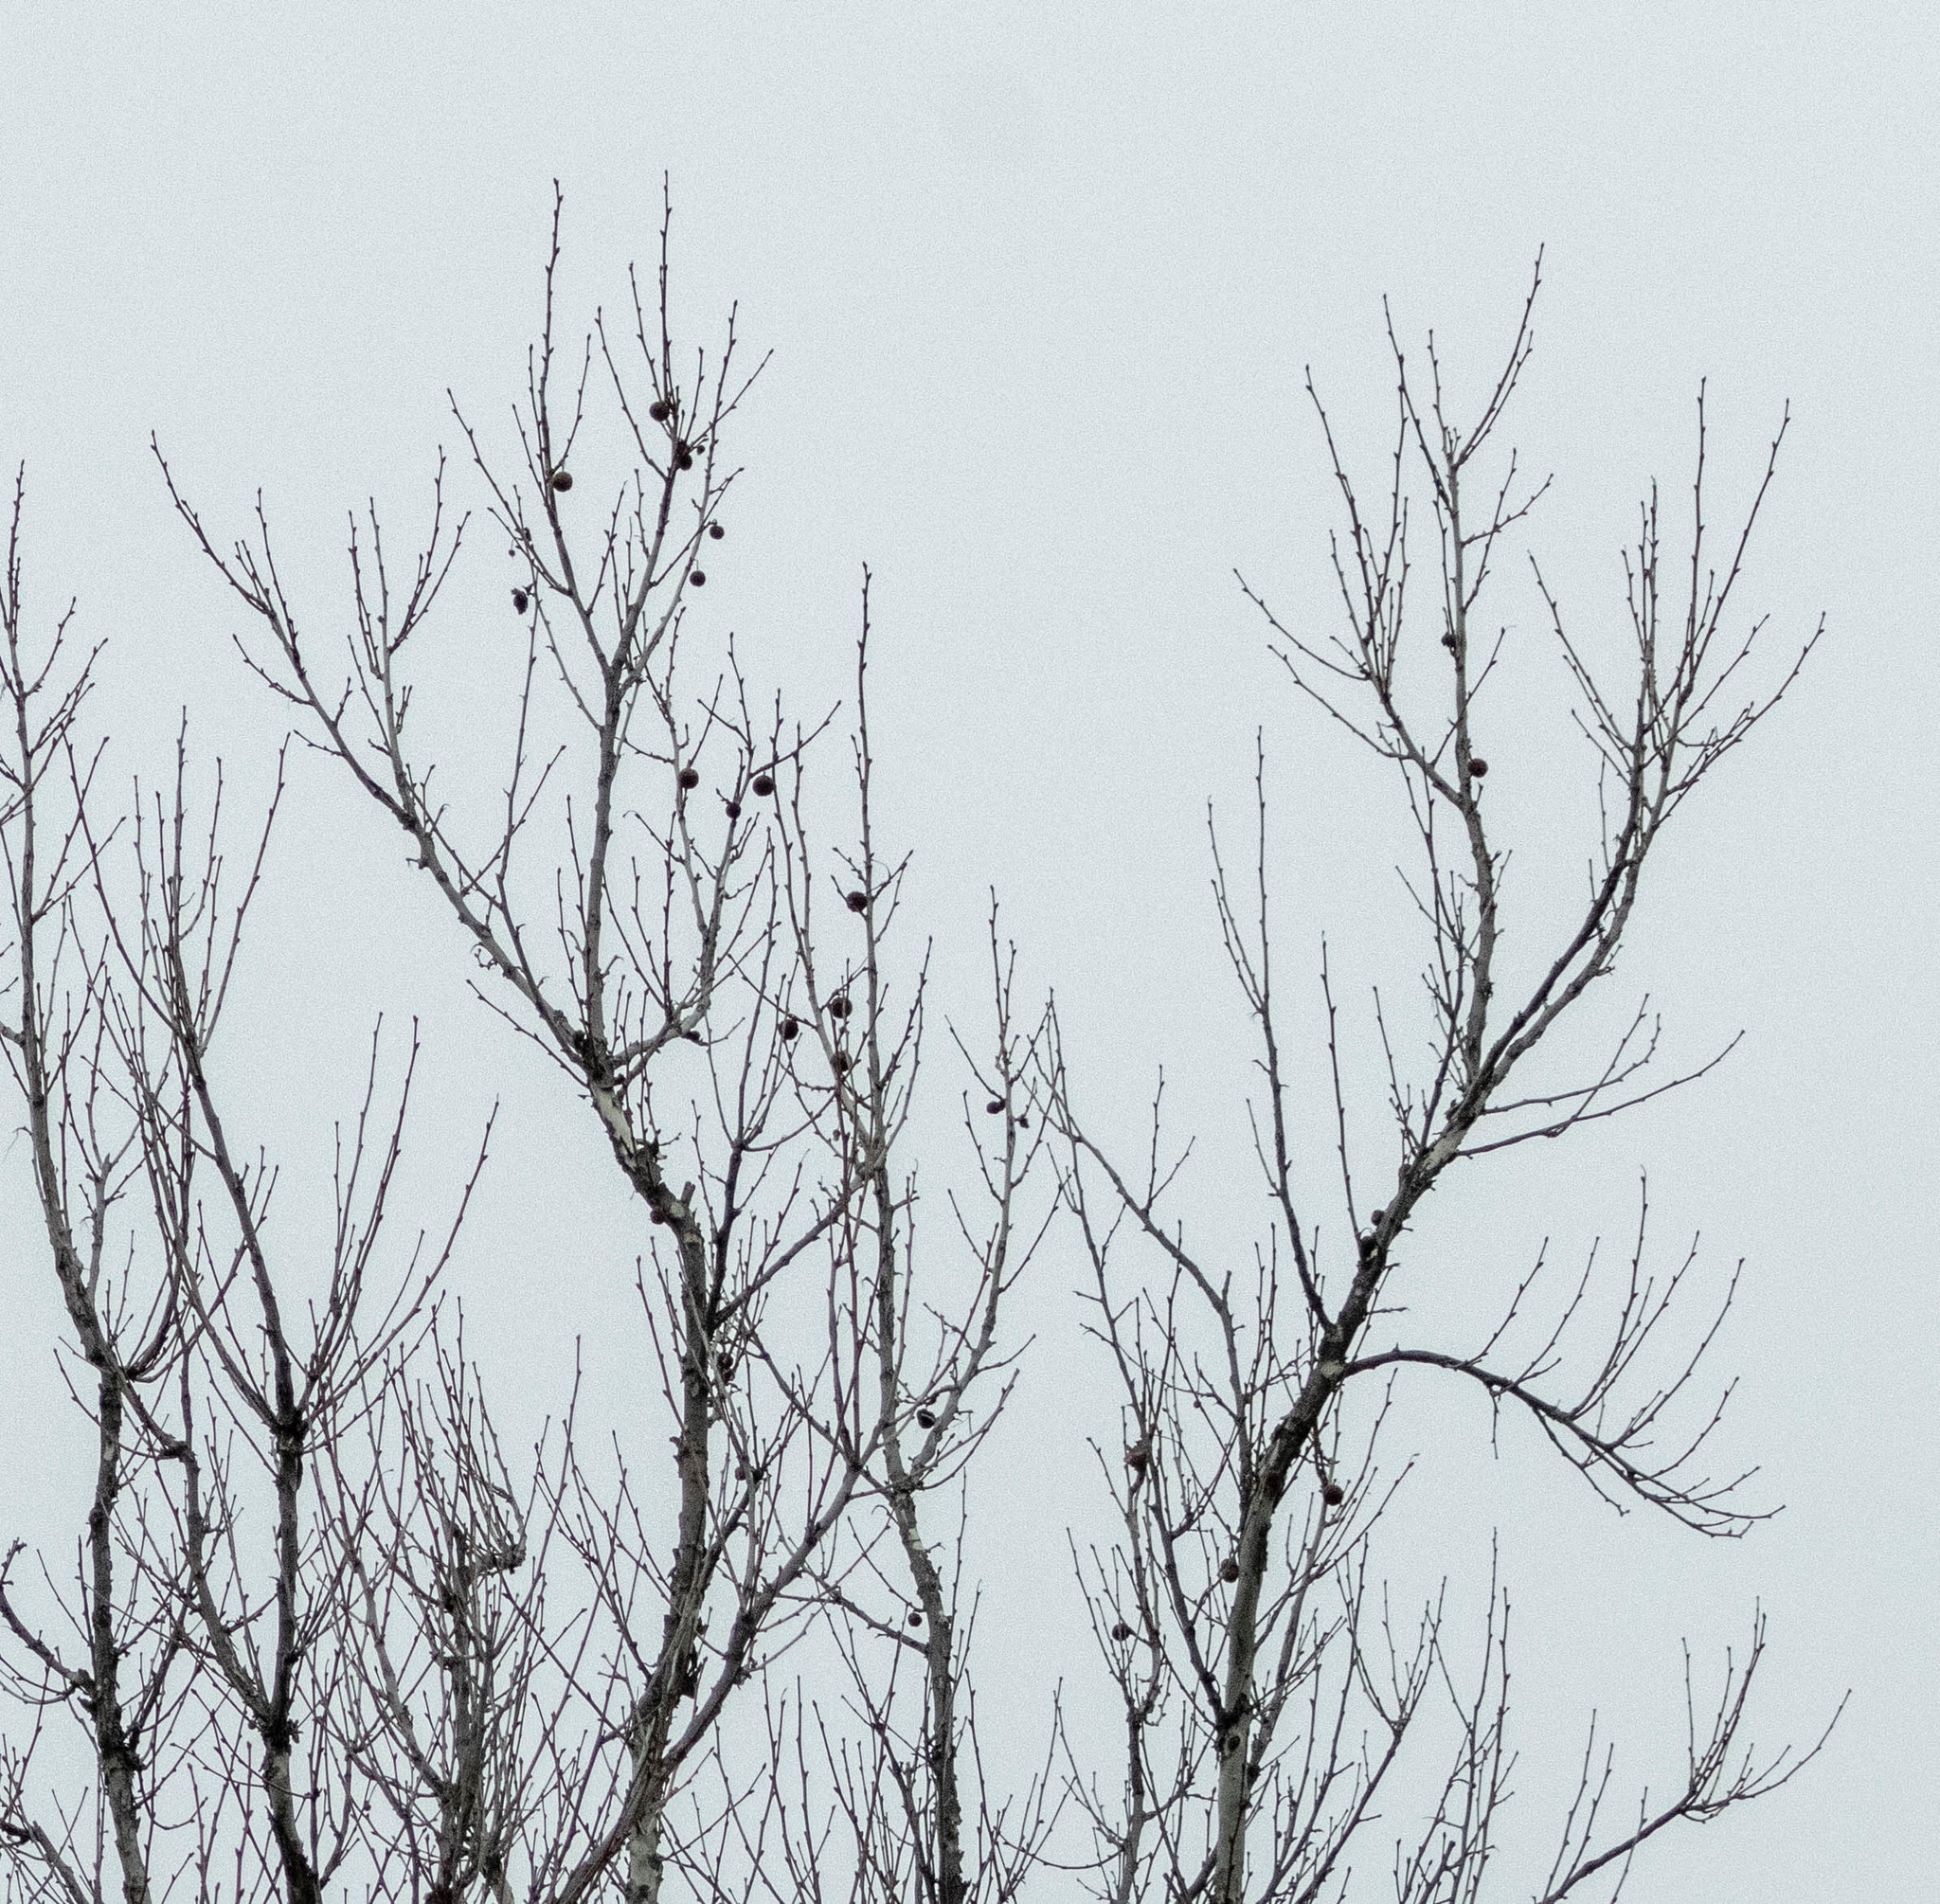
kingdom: Plantae
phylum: Tracheophyta
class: Magnoliopsida
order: Proteales
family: Platanaceae
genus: Platanus
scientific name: Platanus occidentalis
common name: American sycamore
